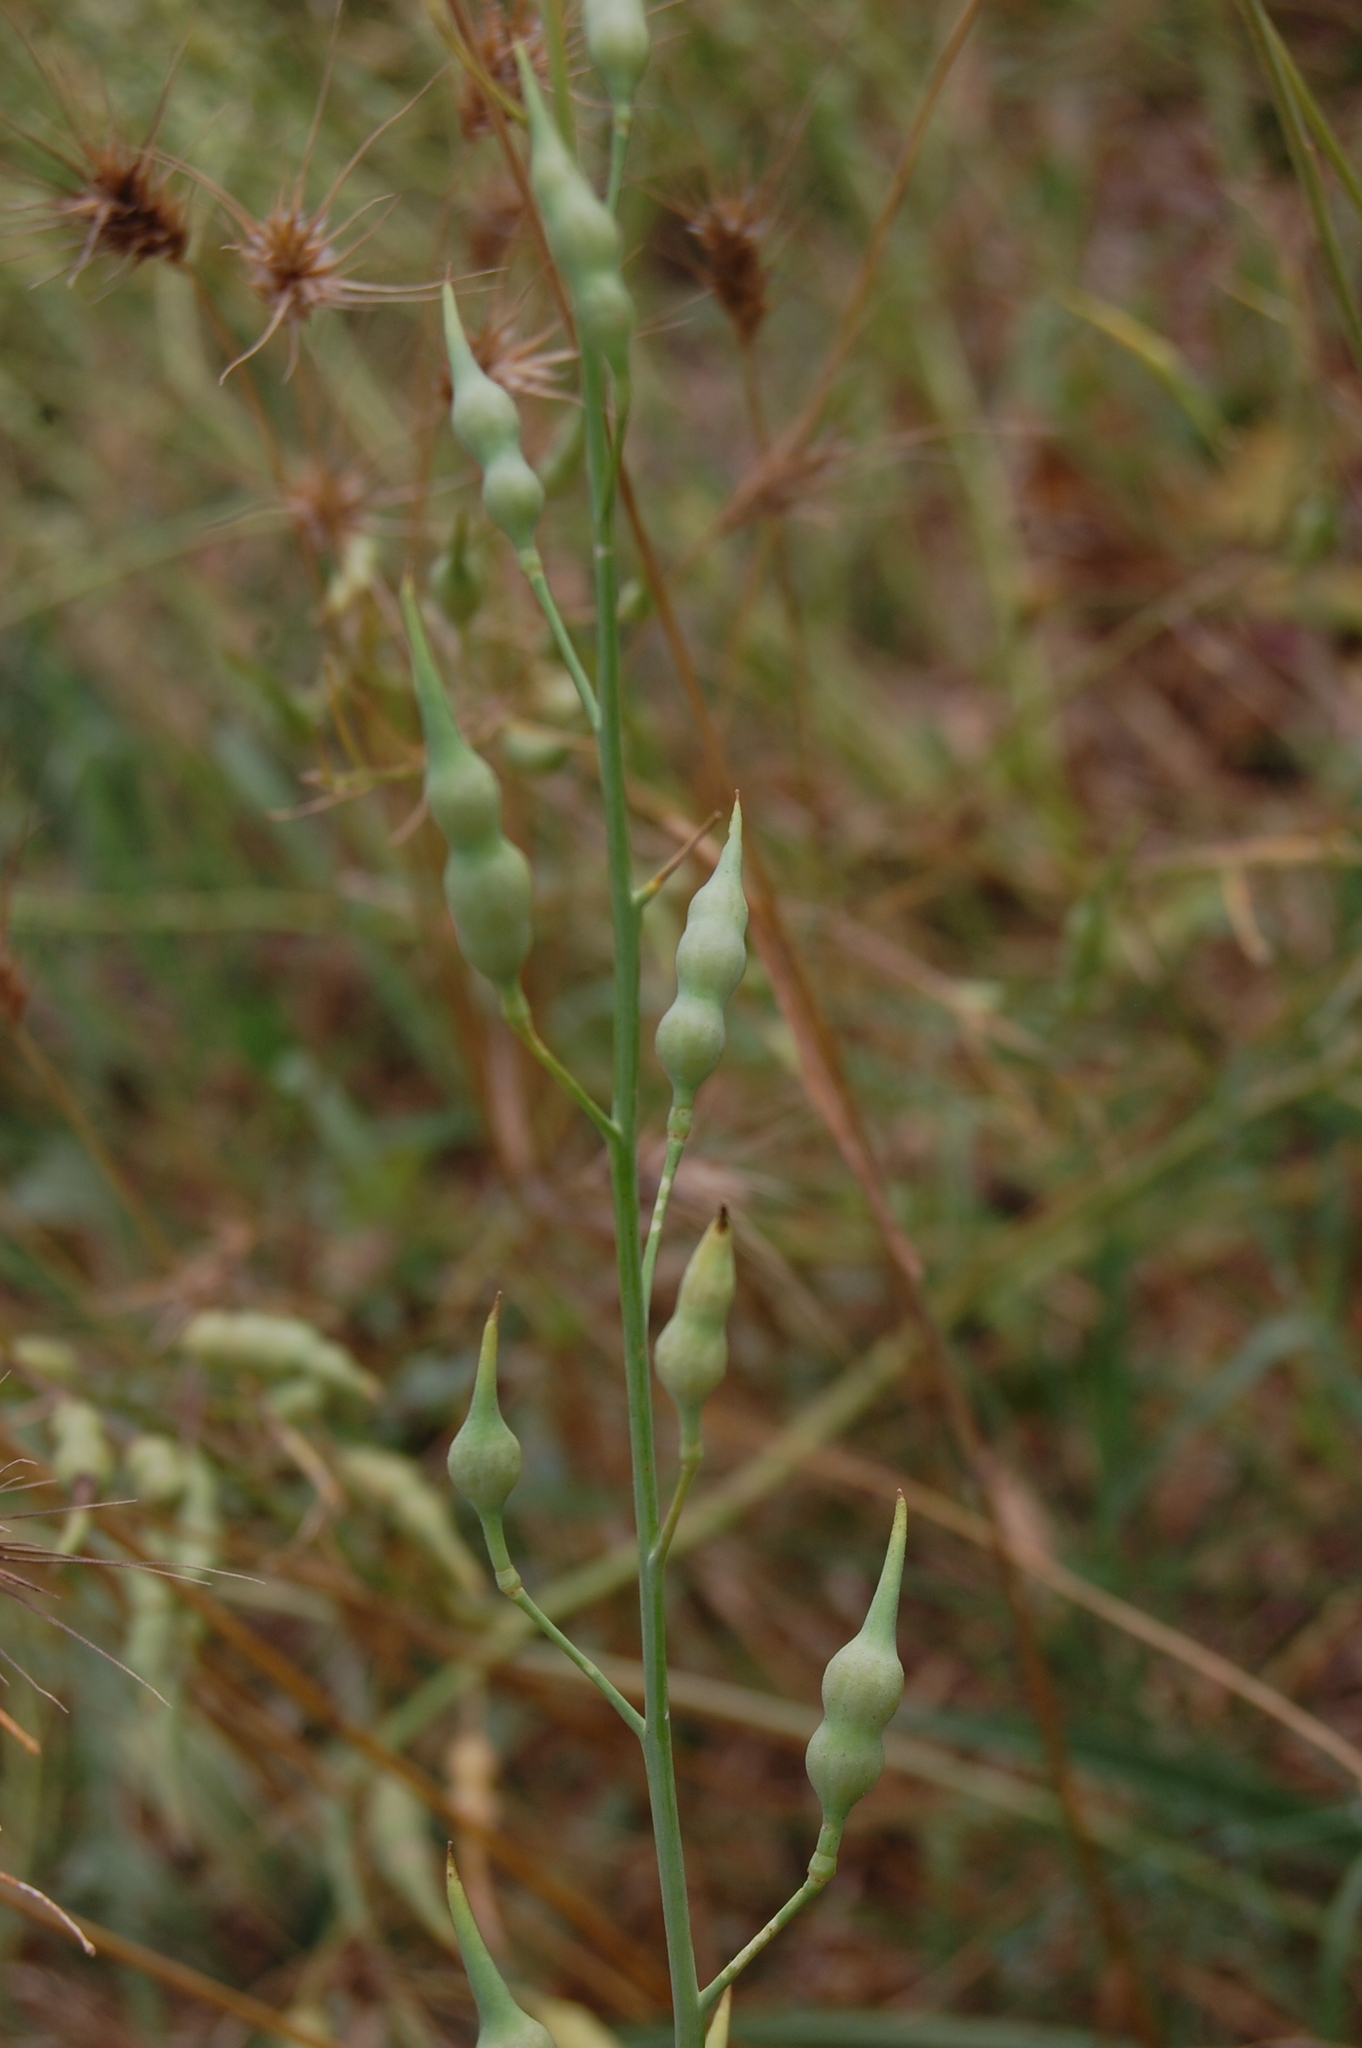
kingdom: Plantae
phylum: Tracheophyta
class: Magnoliopsida
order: Brassicales
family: Brassicaceae
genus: Raphanus
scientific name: Raphanus raphanistrum
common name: Wild radish
